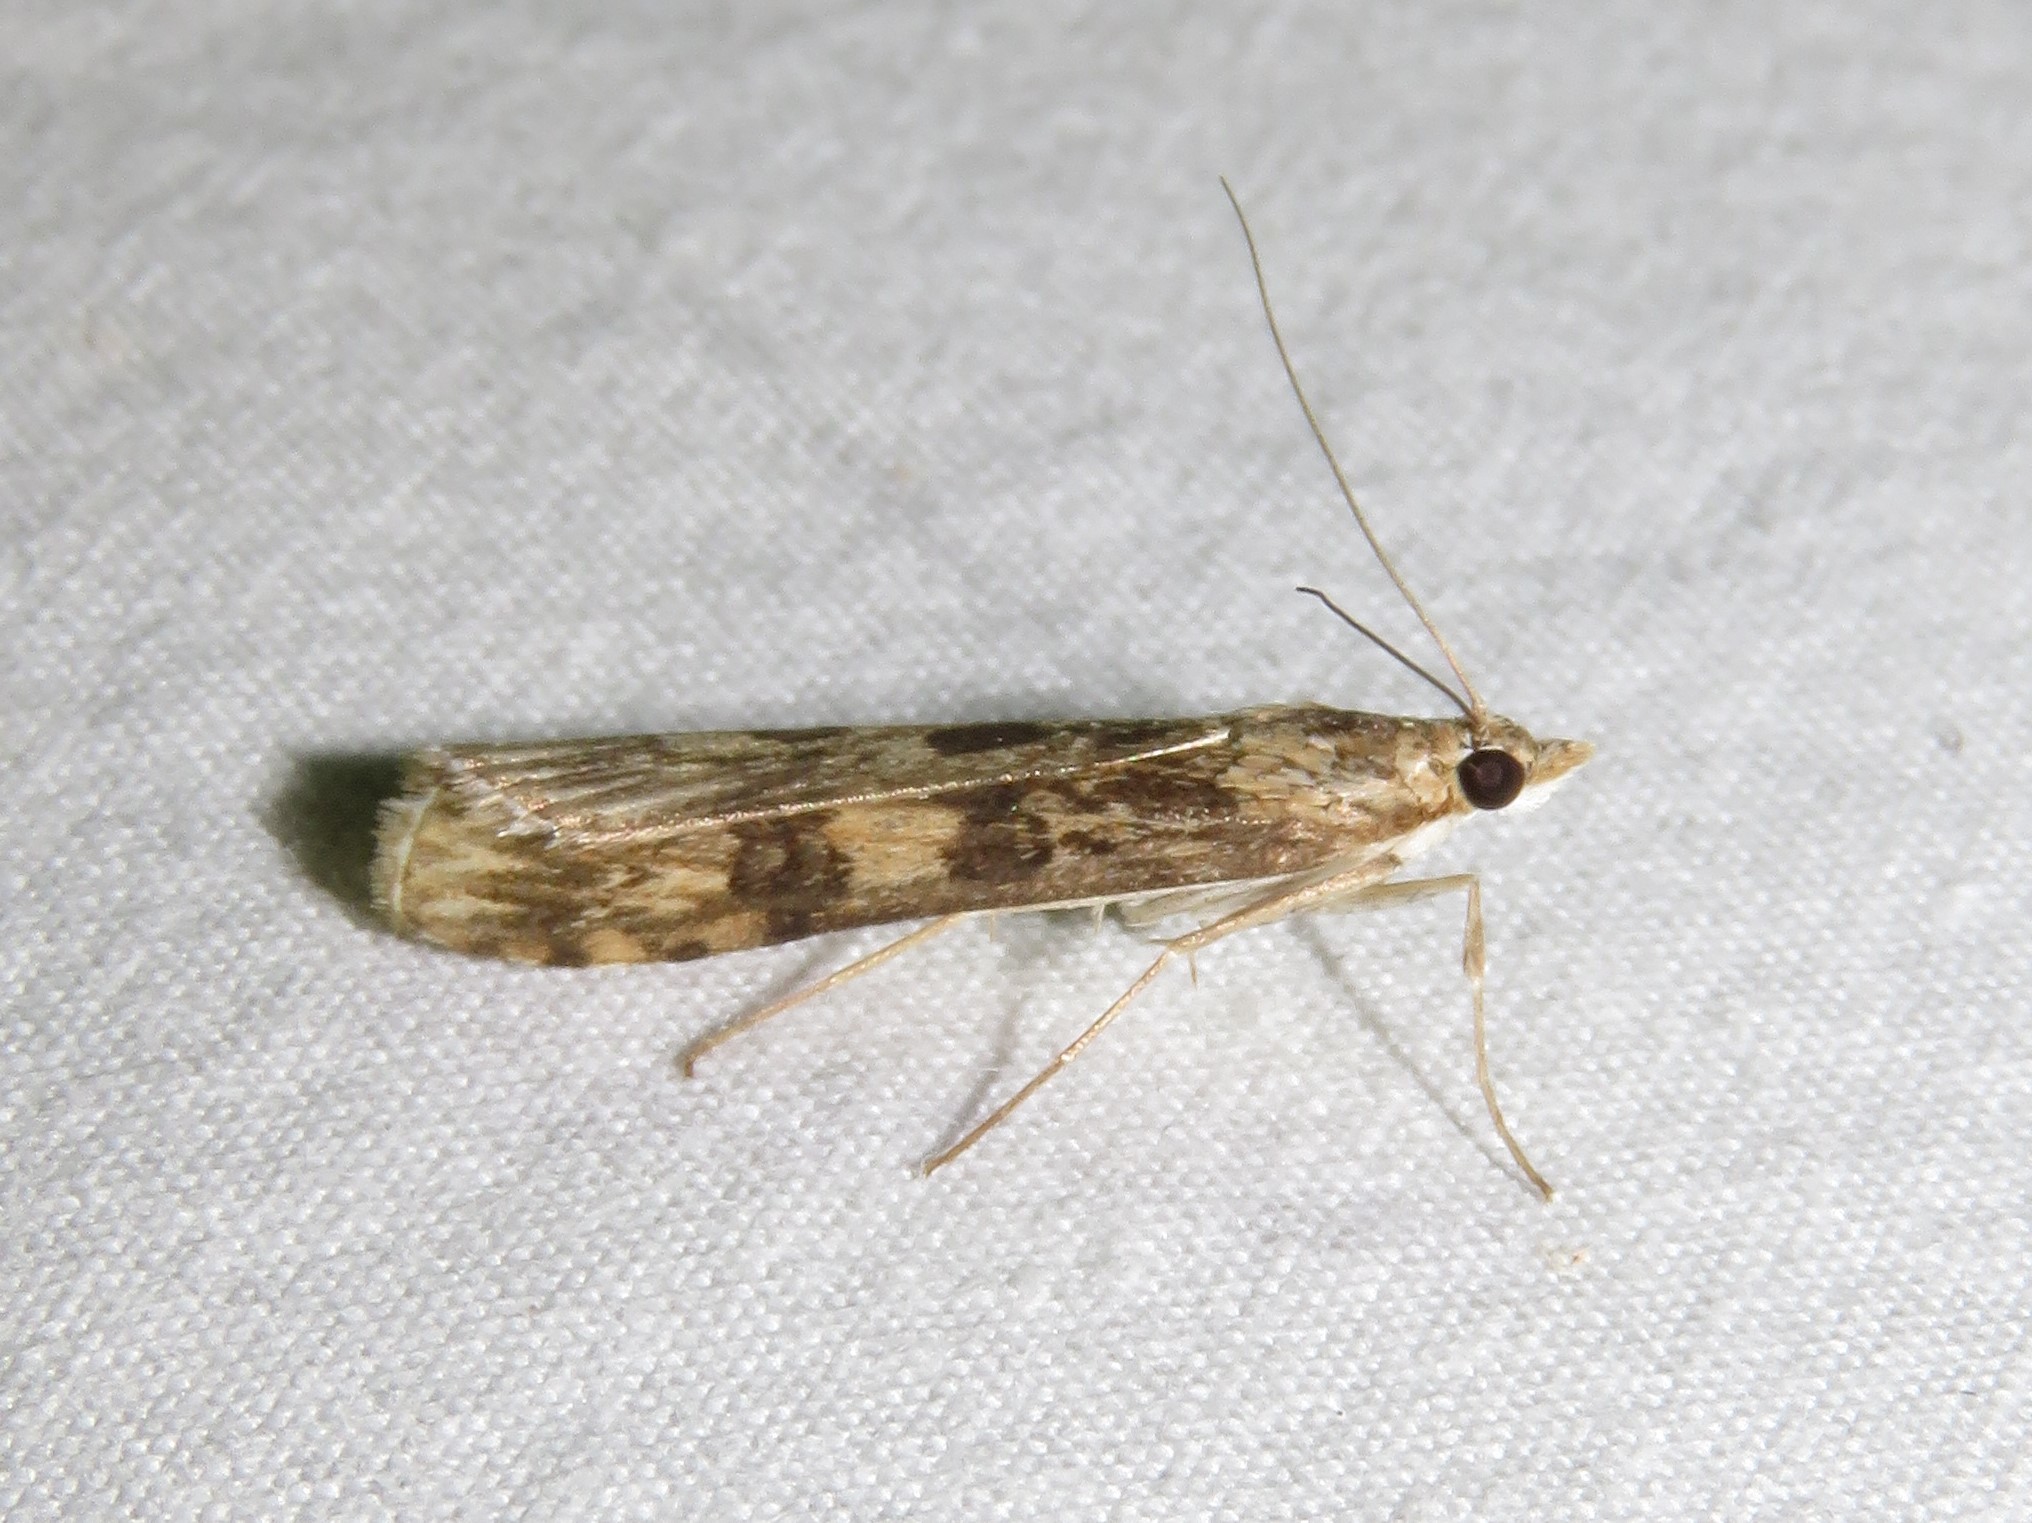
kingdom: Animalia
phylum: Arthropoda
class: Insecta
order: Lepidoptera
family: Crambidae
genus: Nomophila
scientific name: Nomophila nearctica
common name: American rush veneer
